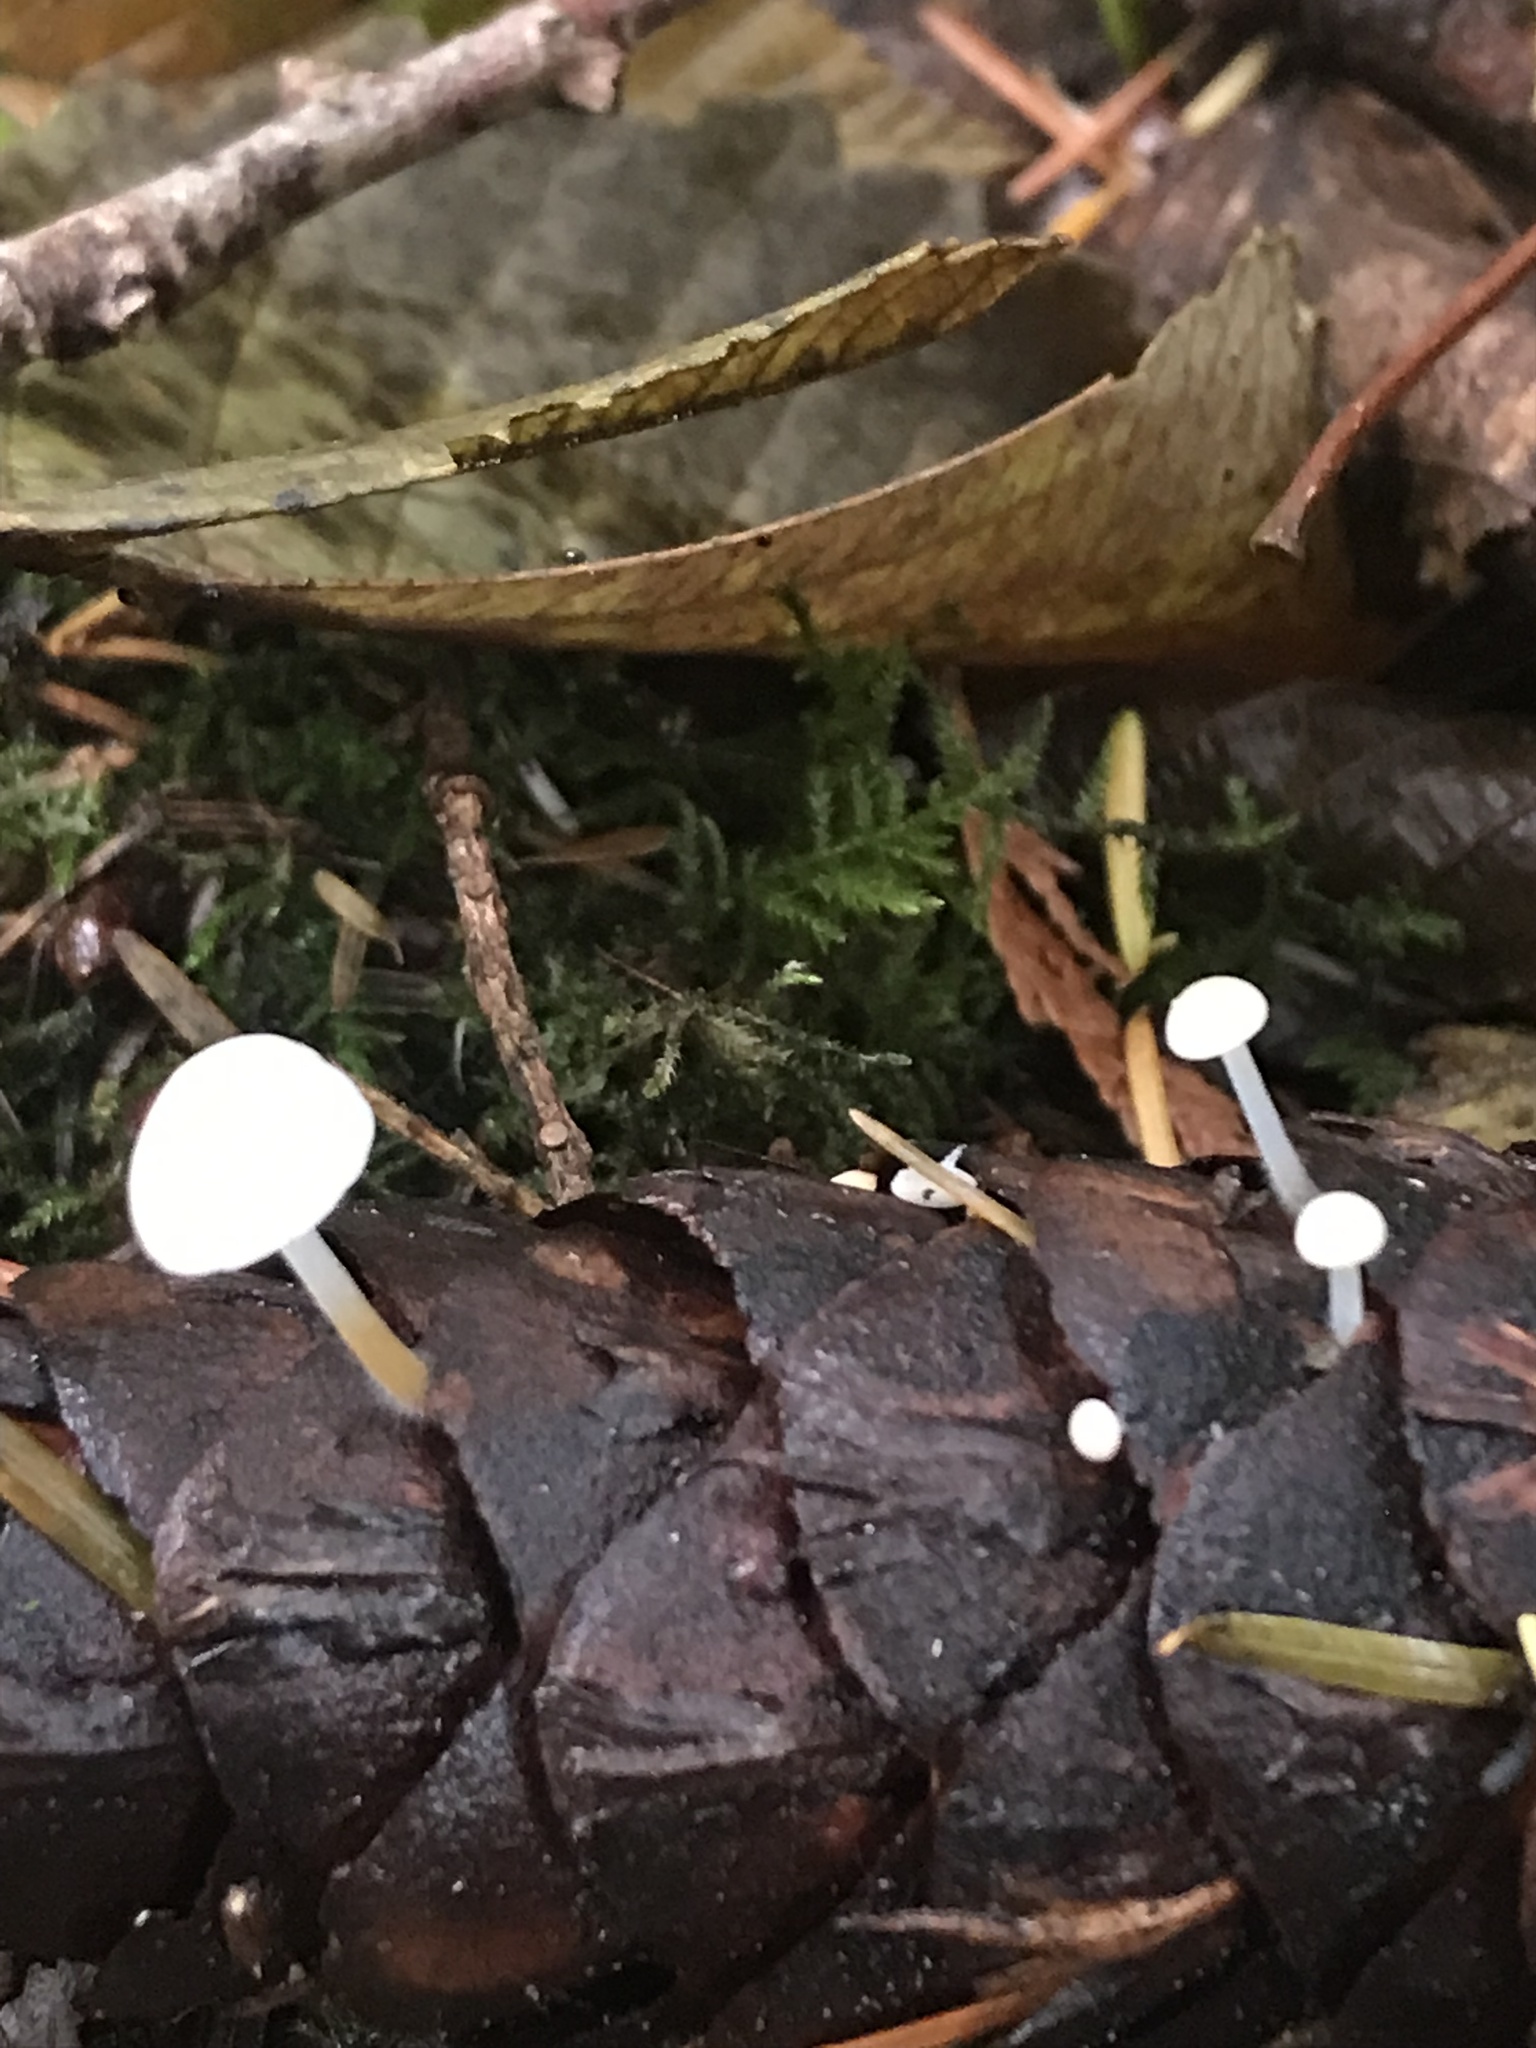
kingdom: Fungi
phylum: Basidiomycota
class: Agaricomycetes
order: Agaricales
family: Physalacriaceae
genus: Strobilurus
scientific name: Strobilurus trullisatus
